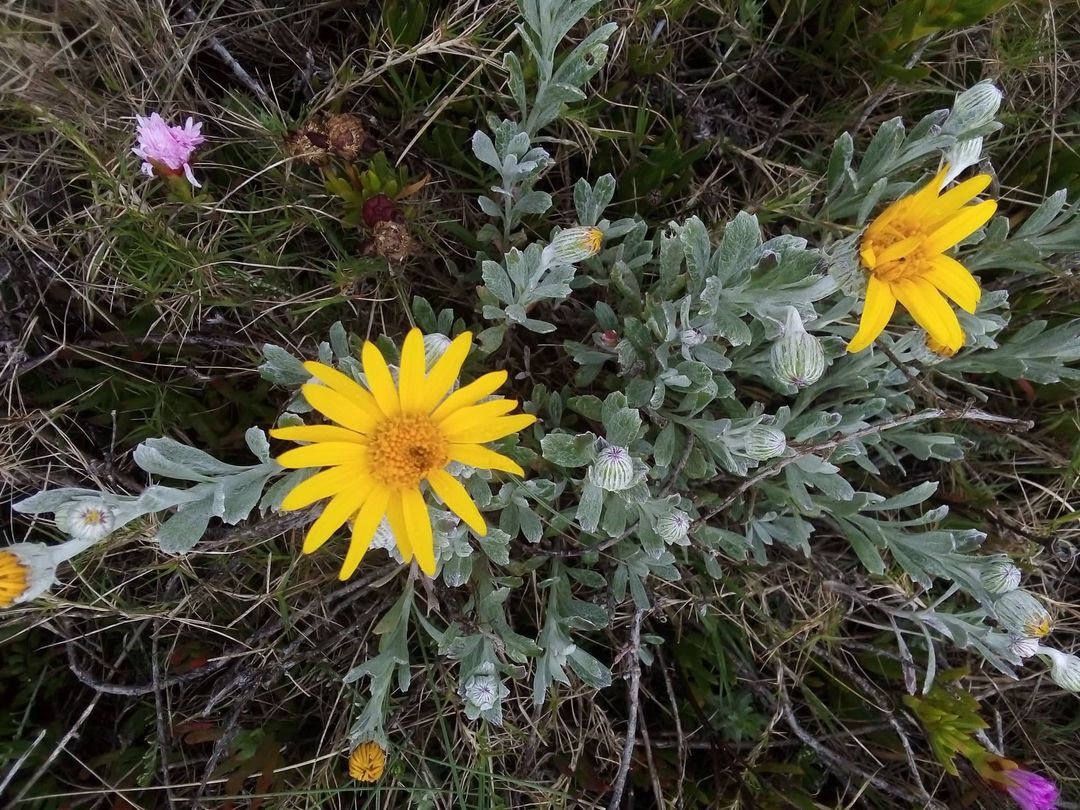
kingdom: Plantae
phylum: Tracheophyta
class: Magnoliopsida
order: Asterales
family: Asteraceae
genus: Senecio
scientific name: Senecio crassiflorus
